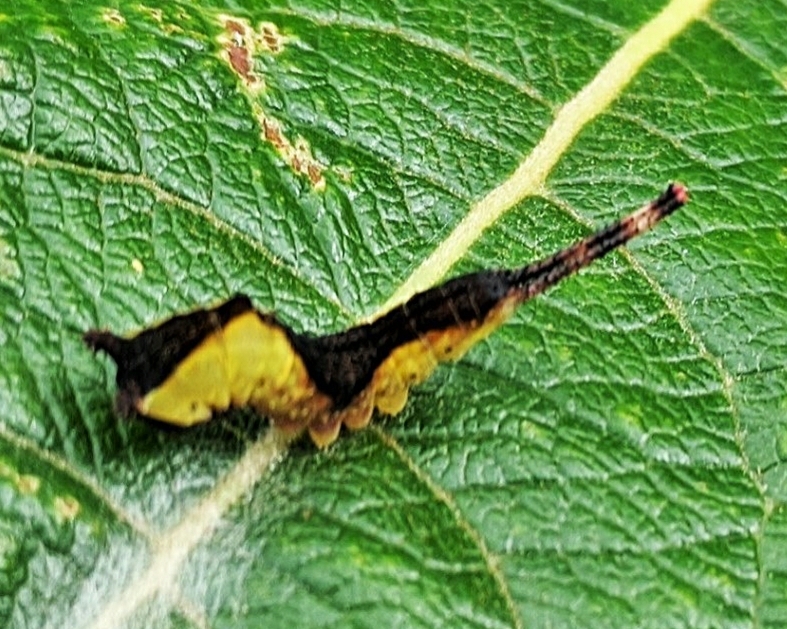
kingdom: Animalia
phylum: Arthropoda
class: Insecta
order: Lepidoptera
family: Notodontidae
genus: Cerura
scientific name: Cerura vinula
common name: Puss moth
